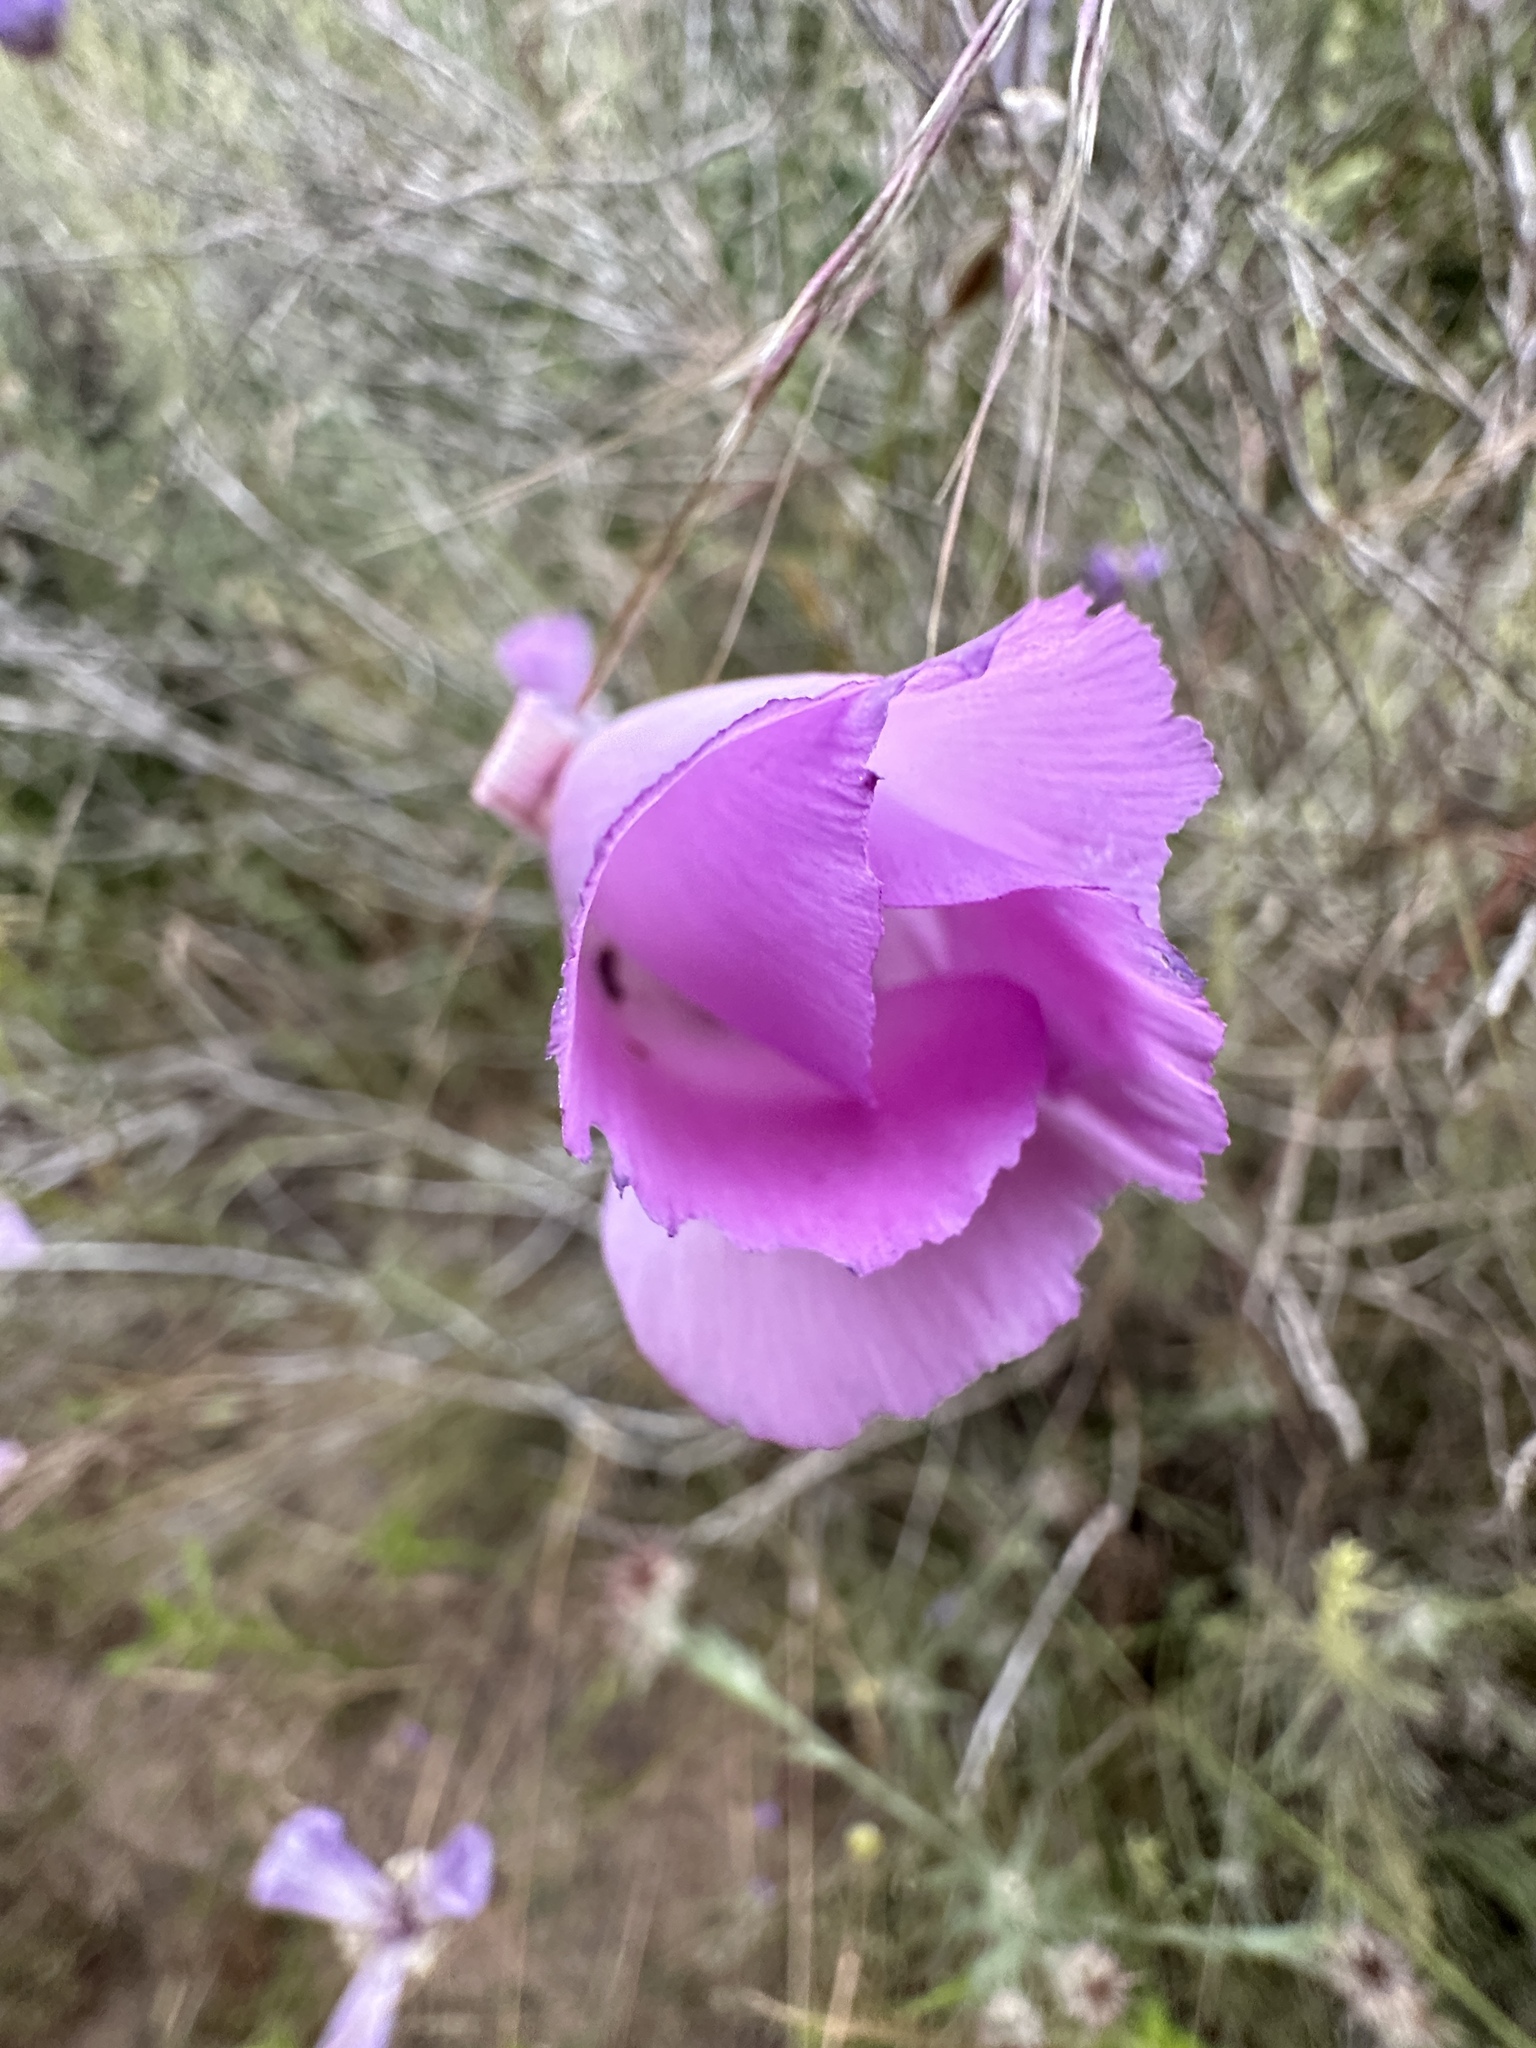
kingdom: Plantae
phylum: Tracheophyta
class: Liliopsida
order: Liliales
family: Liliaceae
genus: Calochortus
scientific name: Calochortus splendens
